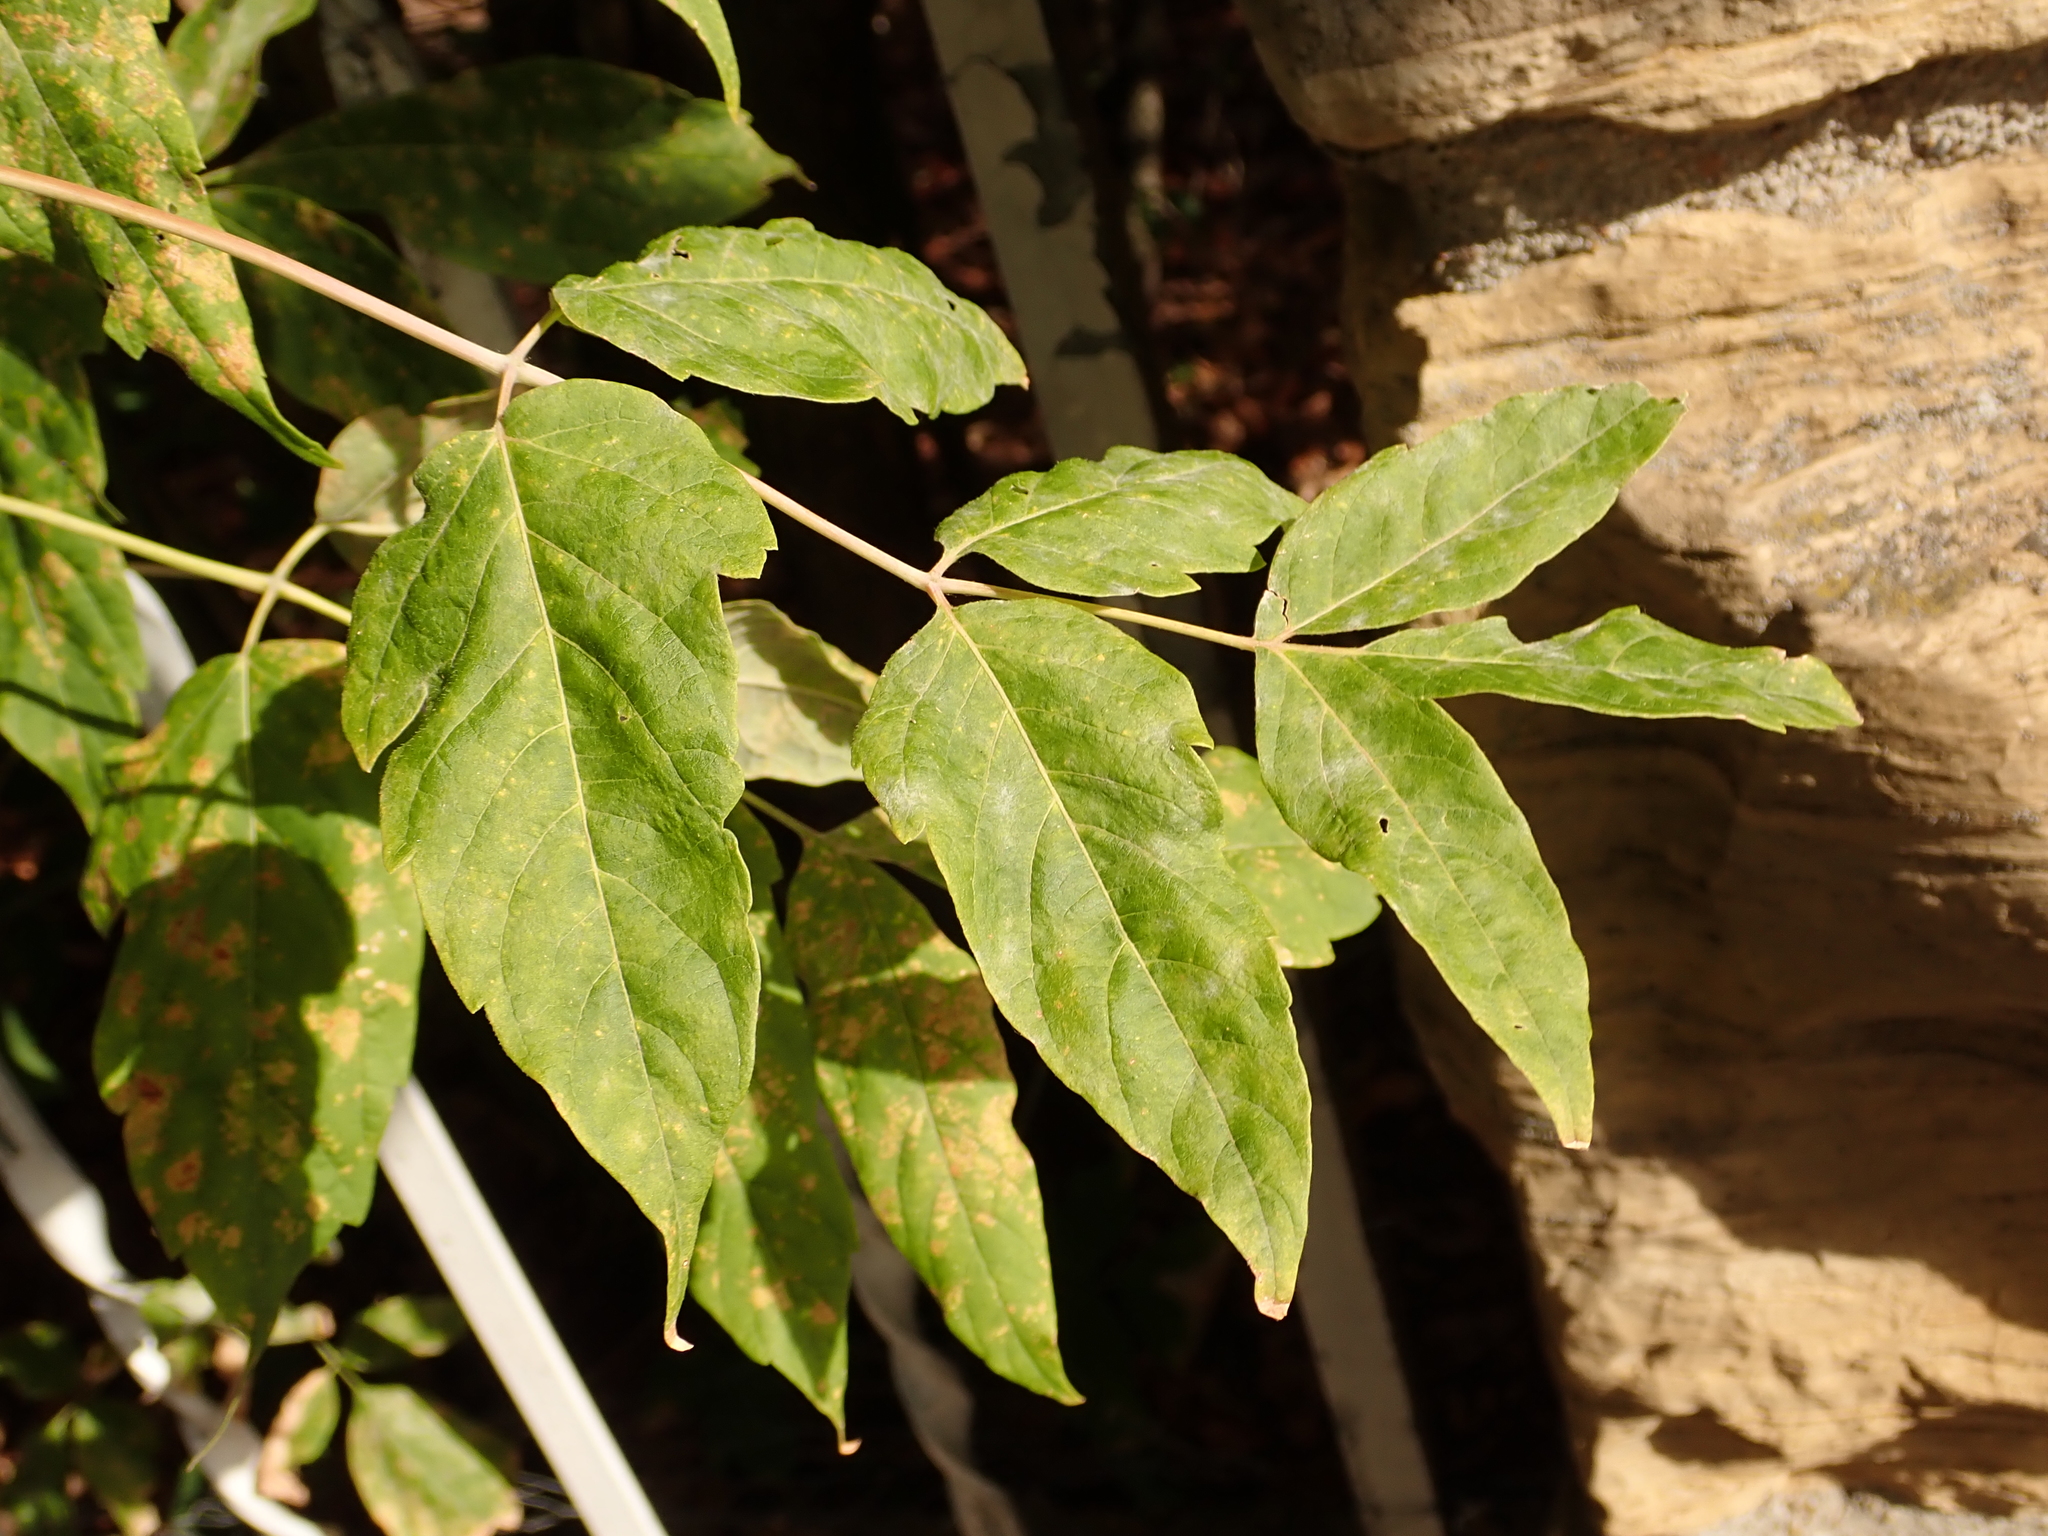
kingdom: Plantae
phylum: Tracheophyta
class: Magnoliopsida
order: Sapindales
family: Sapindaceae
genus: Acer
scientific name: Acer negundo
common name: Ashleaf maple
